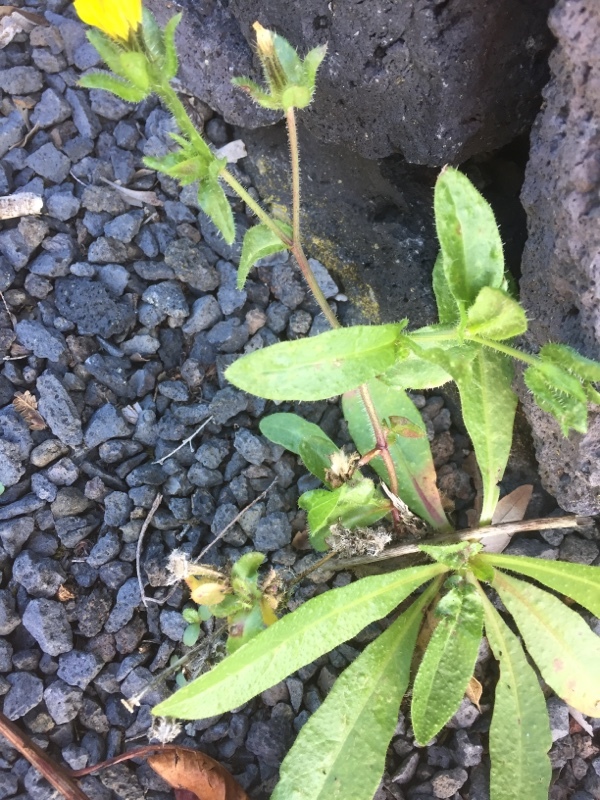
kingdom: Plantae
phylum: Tracheophyta
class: Magnoliopsida
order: Asterales
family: Asteraceae
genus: Helminthotheca
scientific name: Helminthotheca echioides
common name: Ox-tongue
